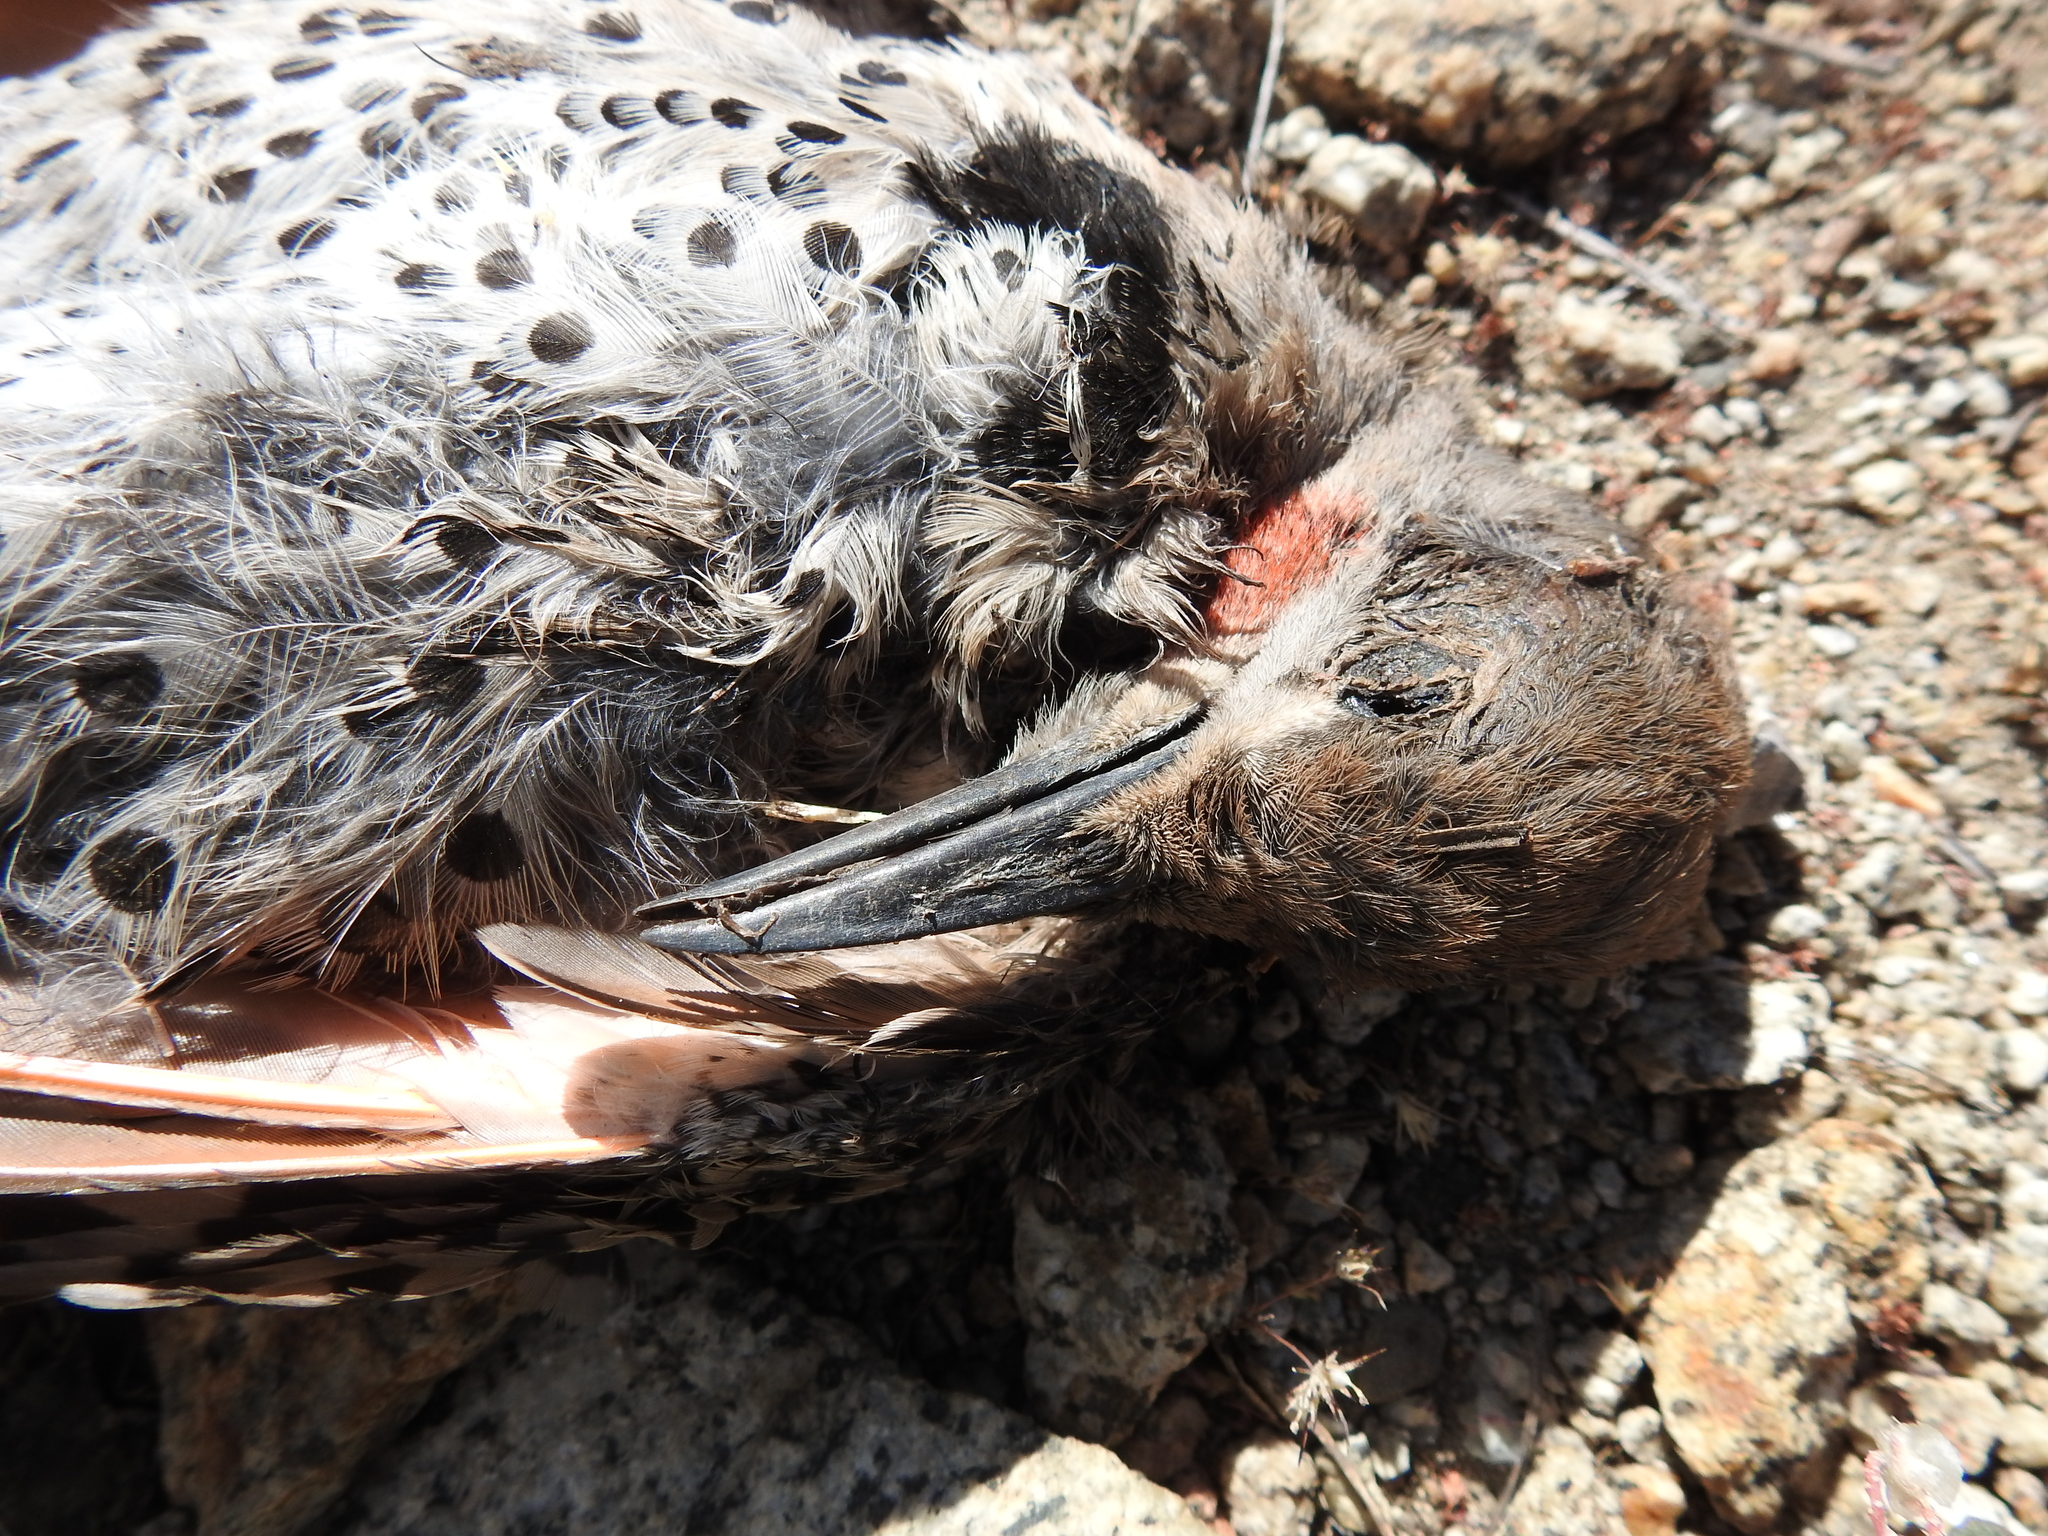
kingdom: Animalia
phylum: Chordata
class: Aves
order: Piciformes
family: Picidae
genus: Colaptes
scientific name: Colaptes auratus
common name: Northern flicker
